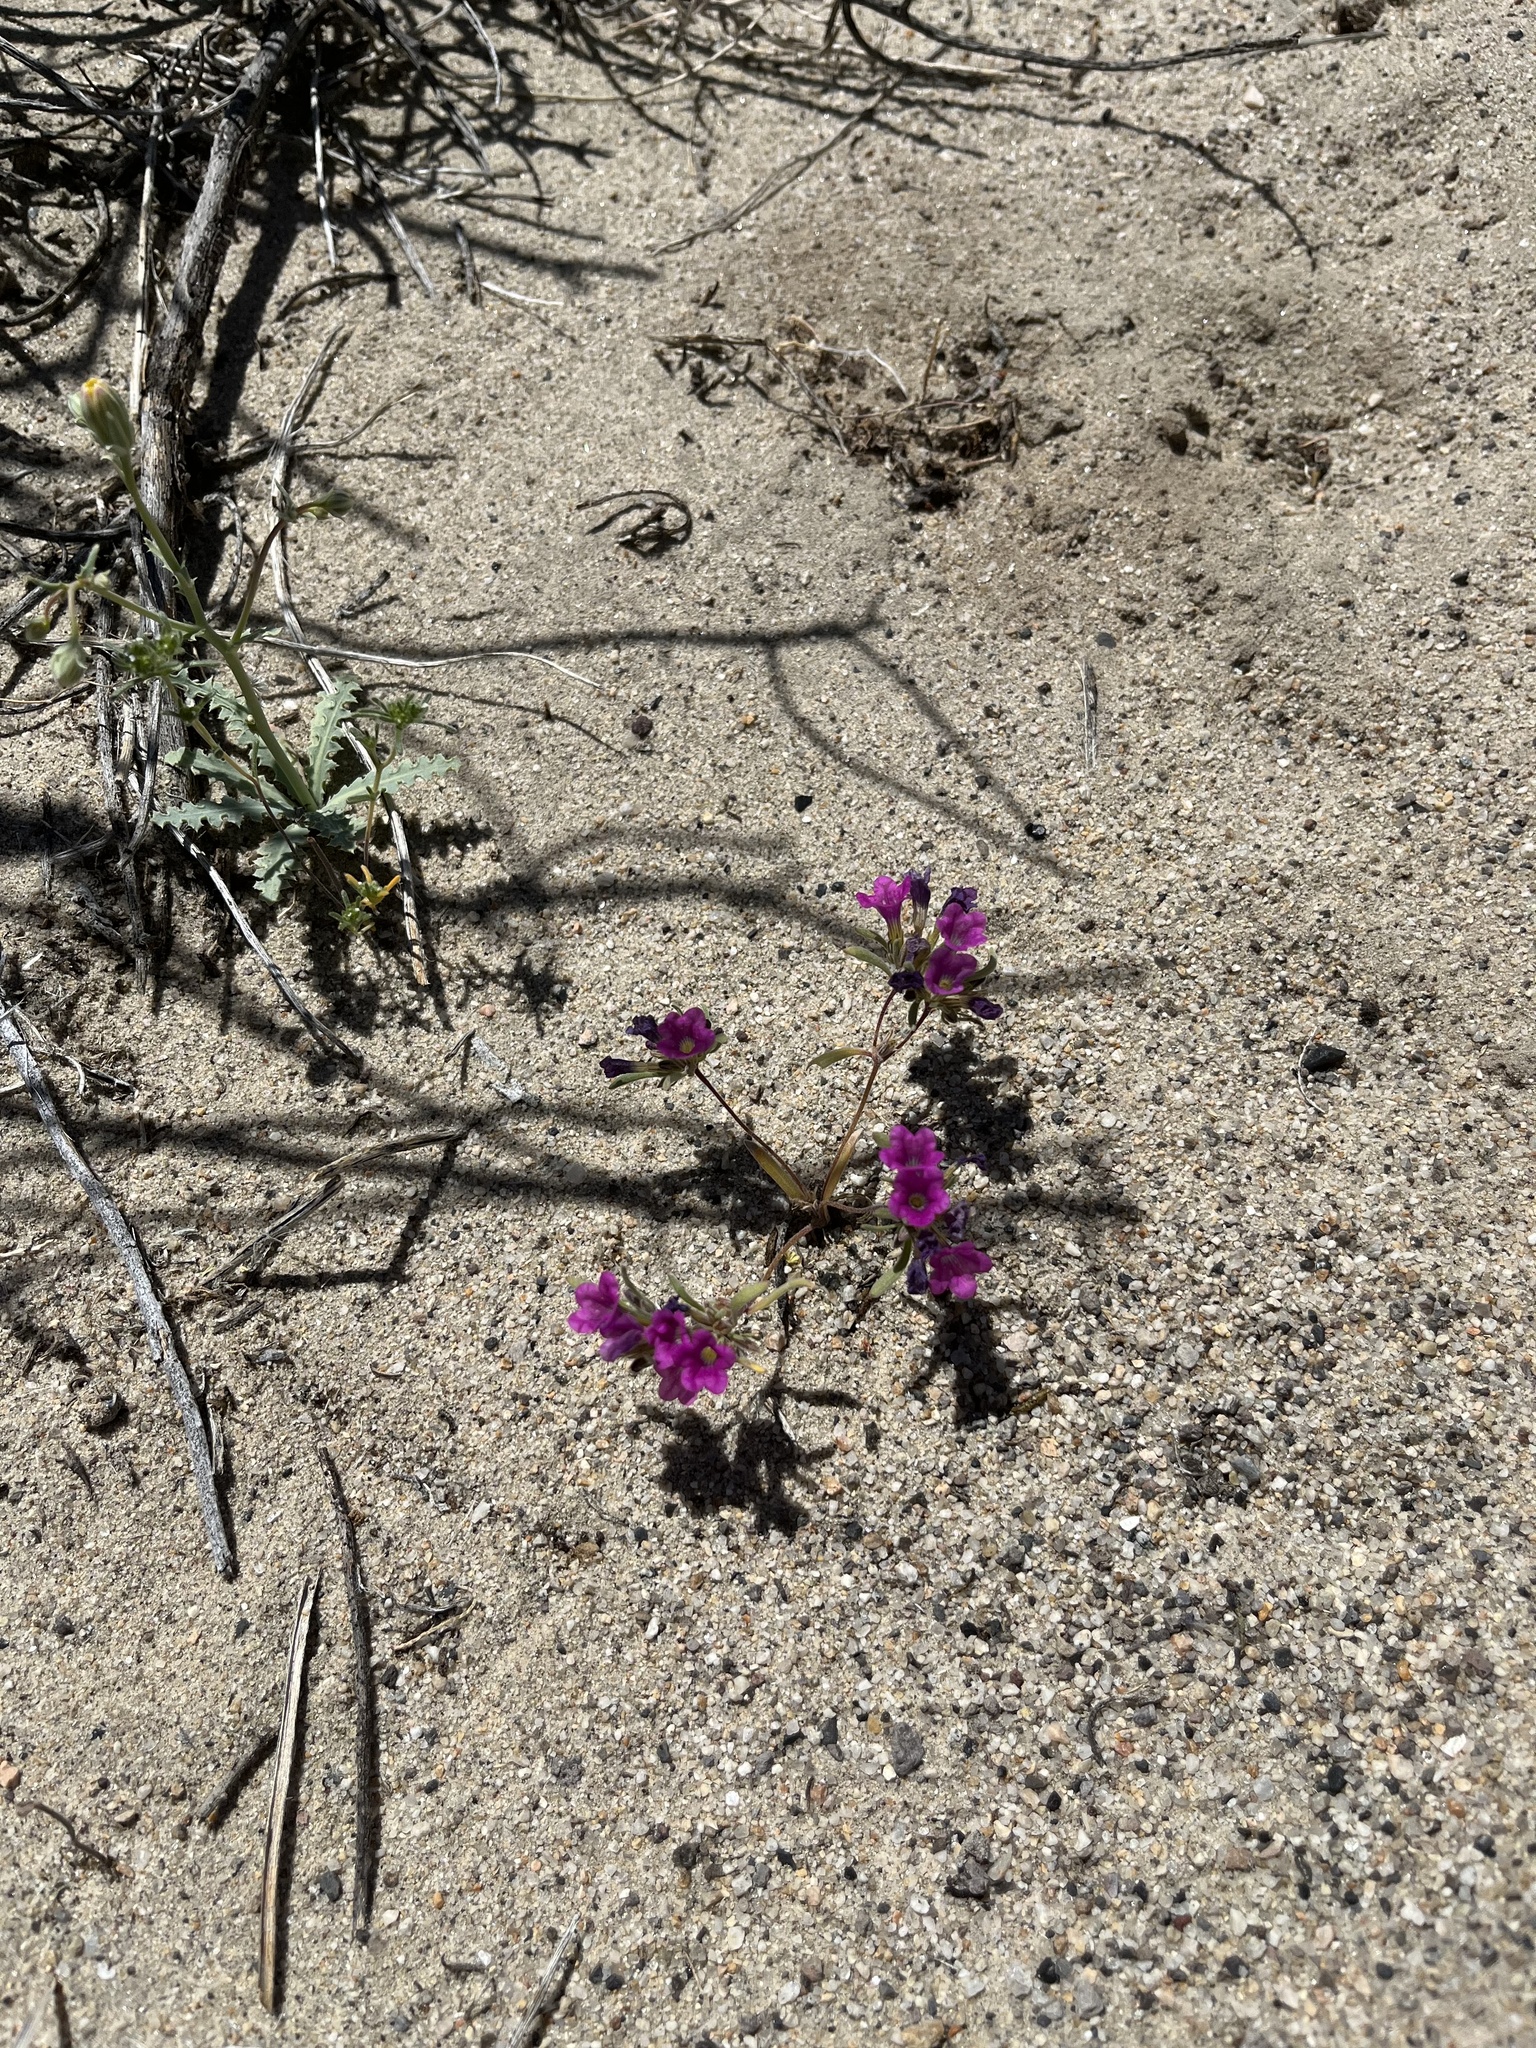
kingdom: Plantae
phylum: Tracheophyta
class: Magnoliopsida
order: Boraginales
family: Namaceae
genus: Nama
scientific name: Nama demissa
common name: Leafy nama
